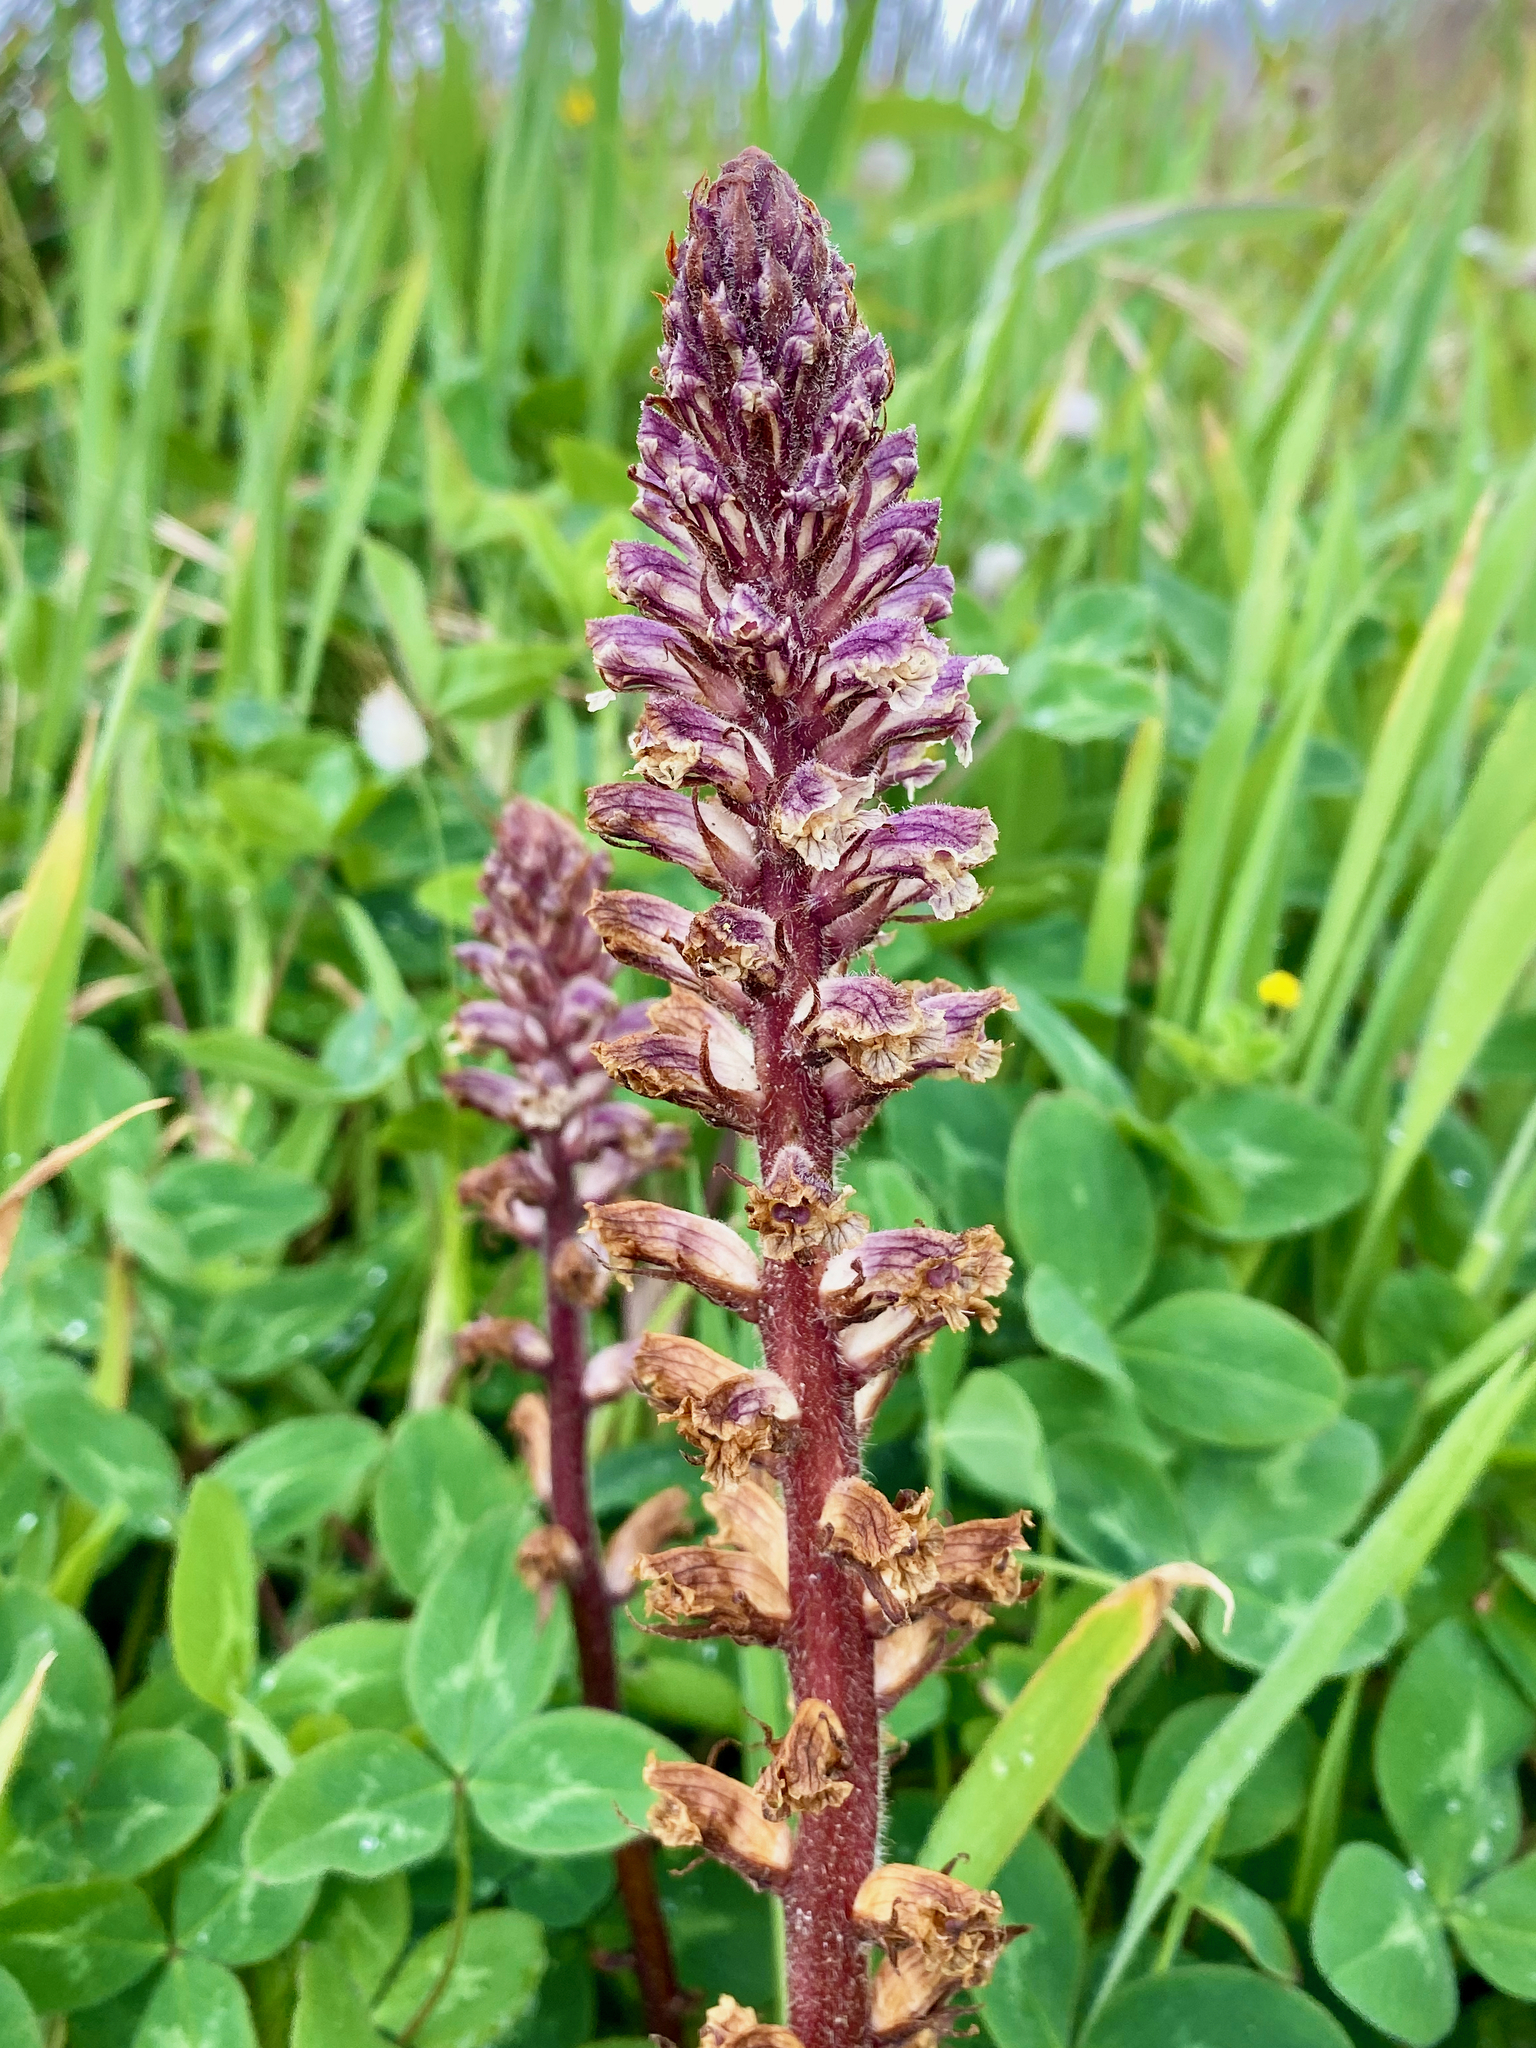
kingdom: Plantae
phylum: Tracheophyta
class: Magnoliopsida
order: Lamiales
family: Orobanchaceae
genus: Orobanche
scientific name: Orobanche minor
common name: Common broomrape
